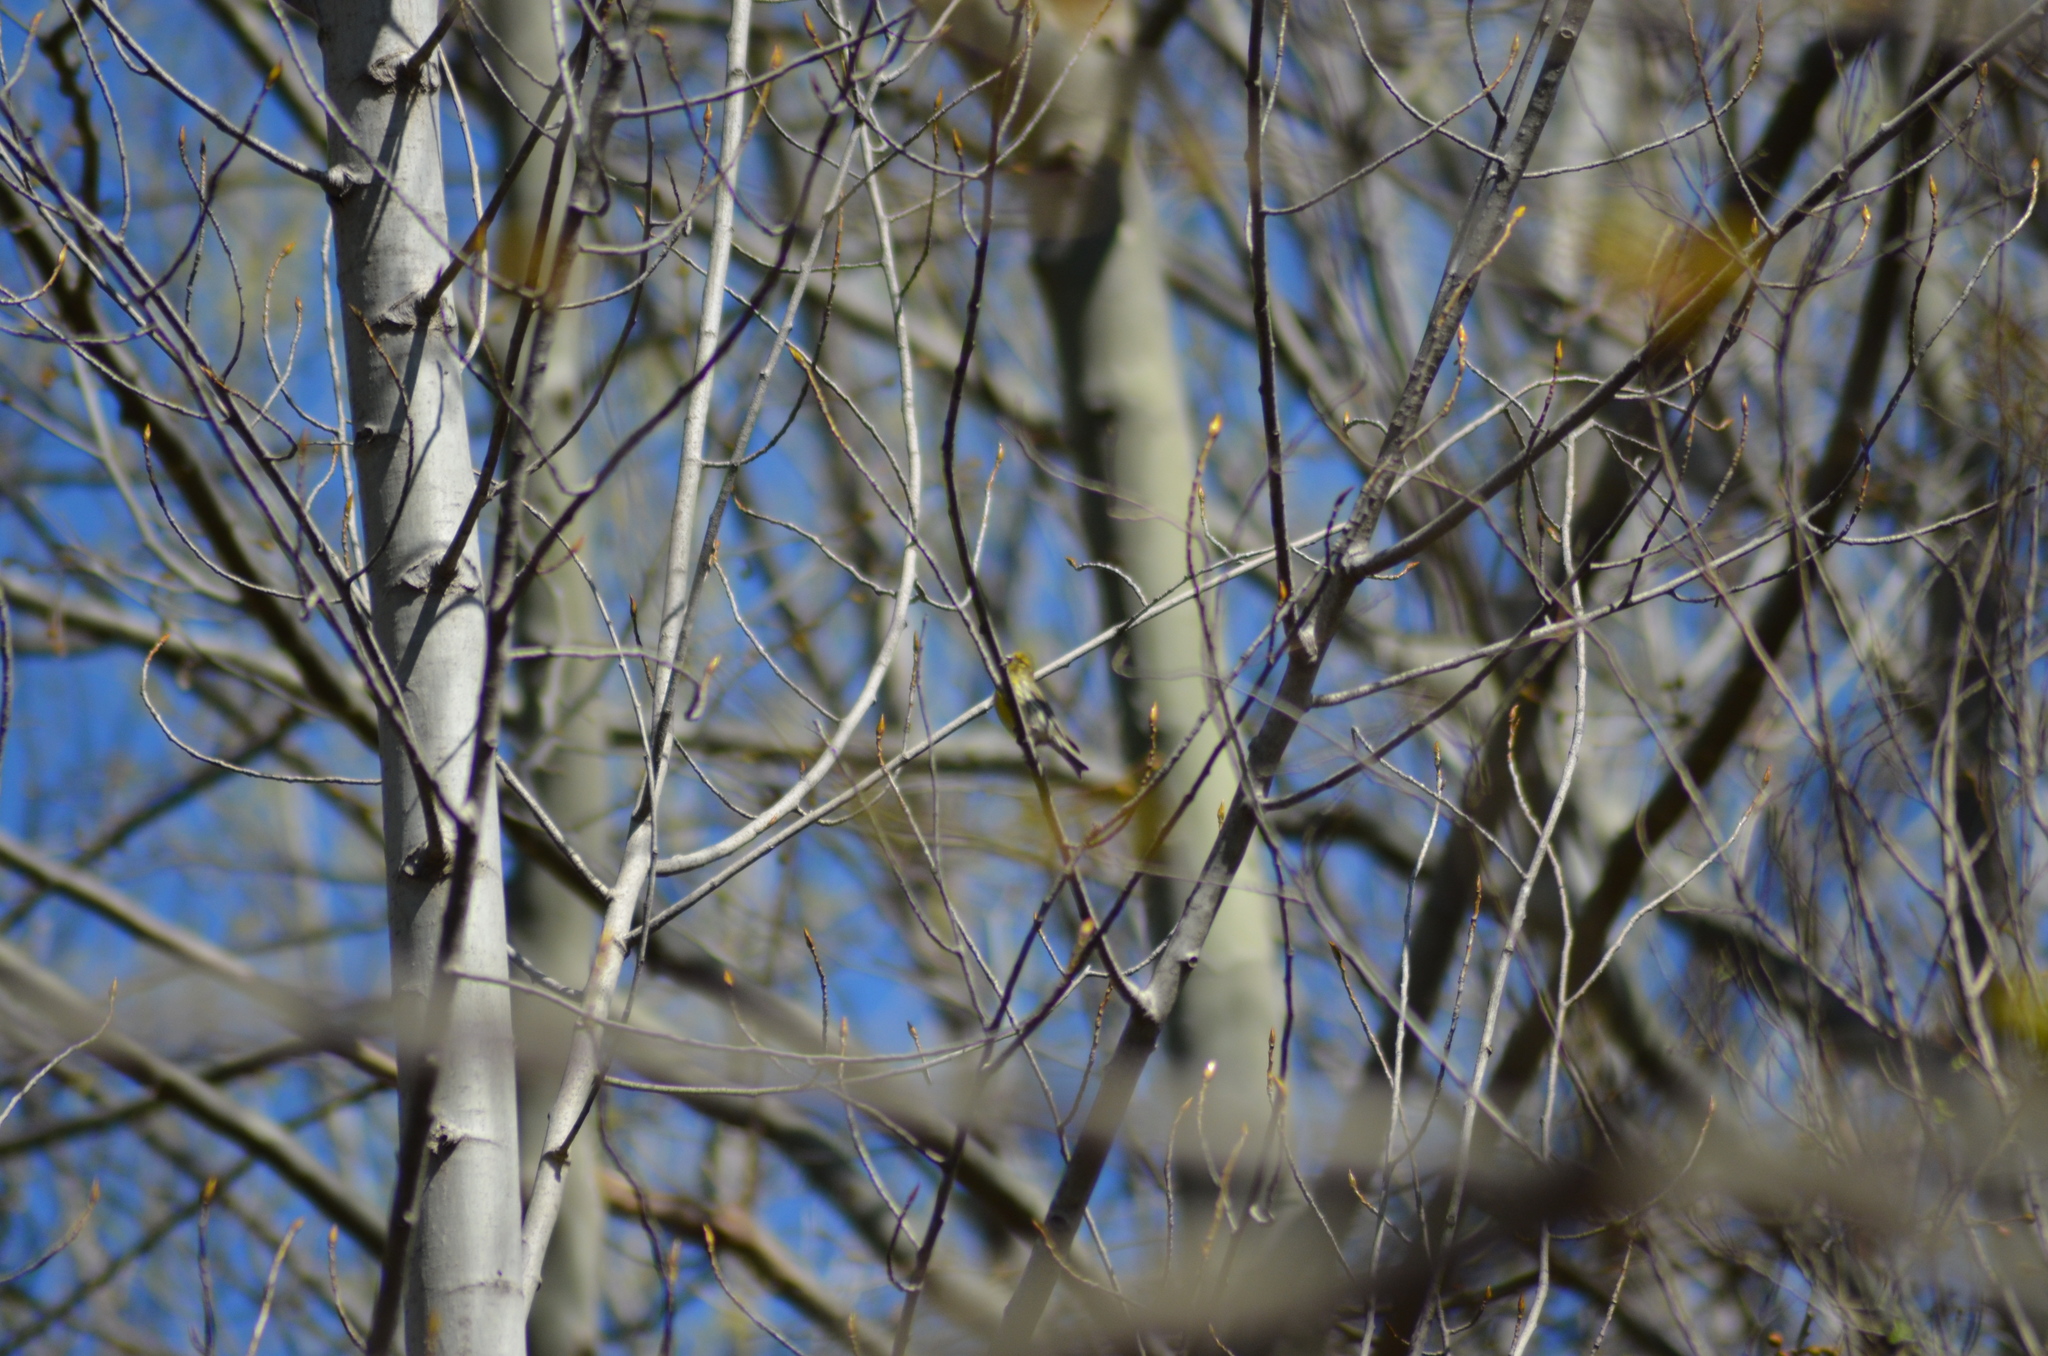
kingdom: Animalia
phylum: Chordata
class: Aves
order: Passeriformes
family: Fringillidae
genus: Serinus
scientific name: Serinus serinus
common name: European serin
